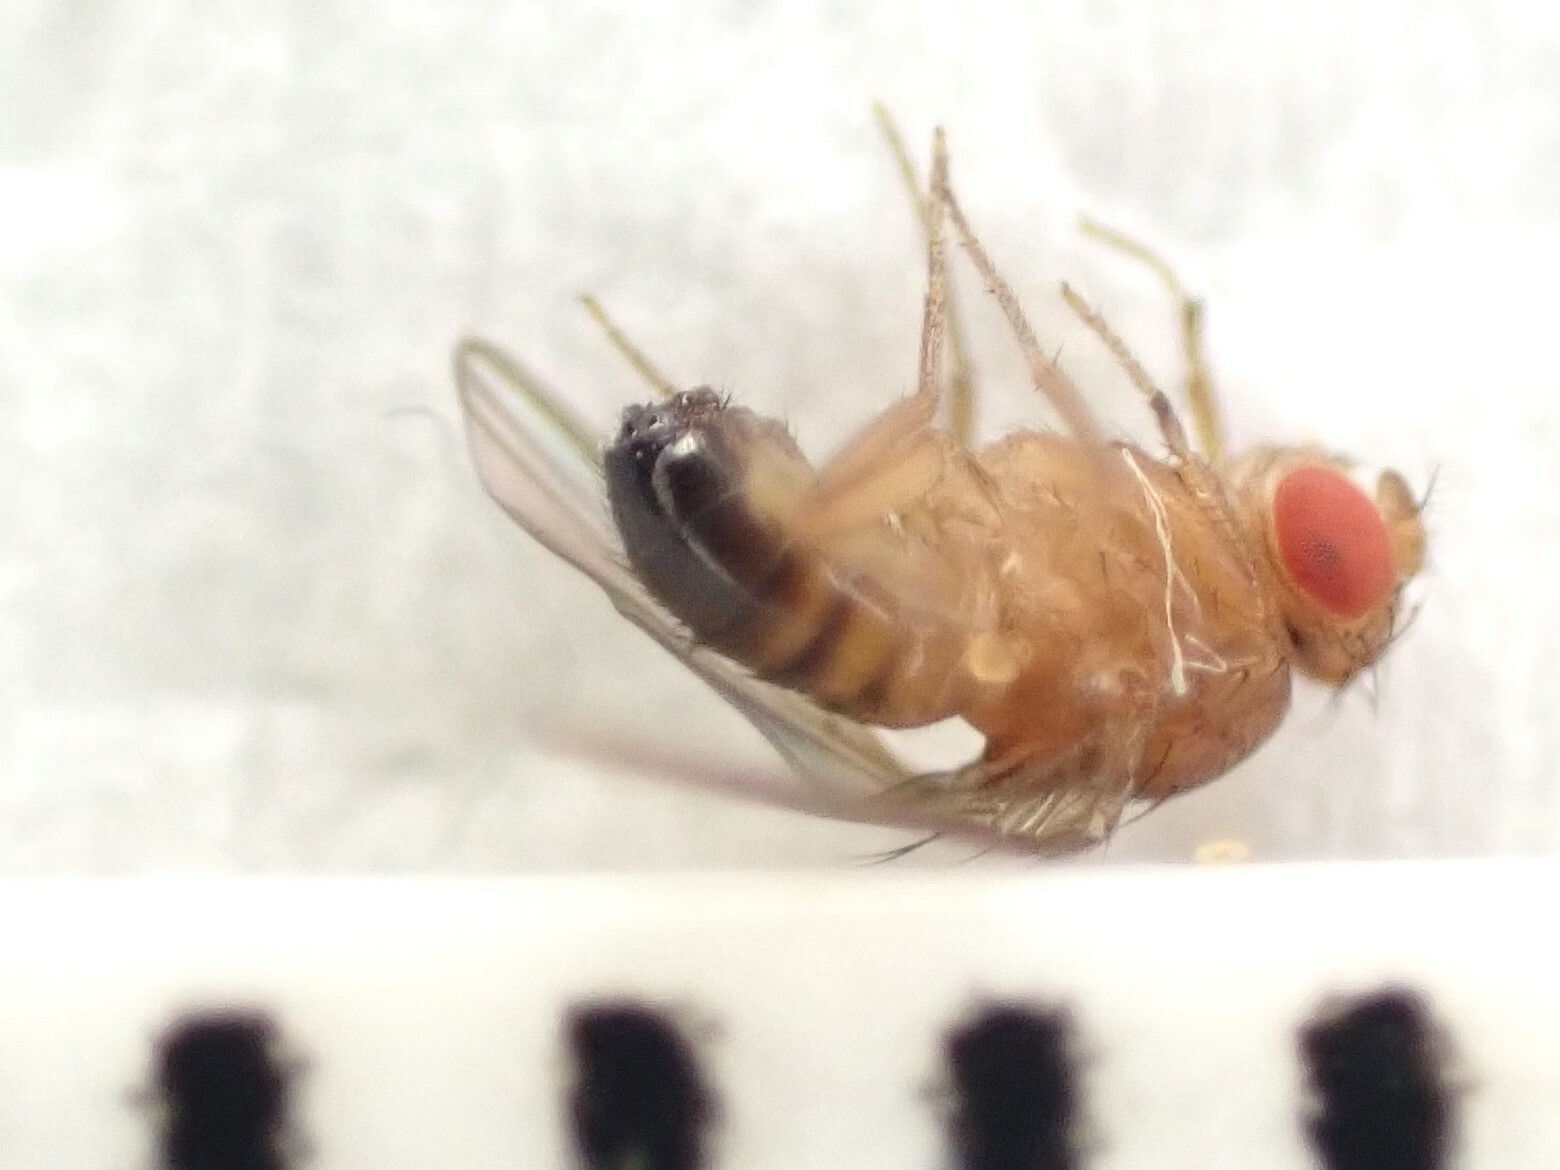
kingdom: Animalia
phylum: Arthropoda
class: Insecta
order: Diptera
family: Drosophilidae
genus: Drosophila
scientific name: Drosophila melanogaster
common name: Pomace fly
